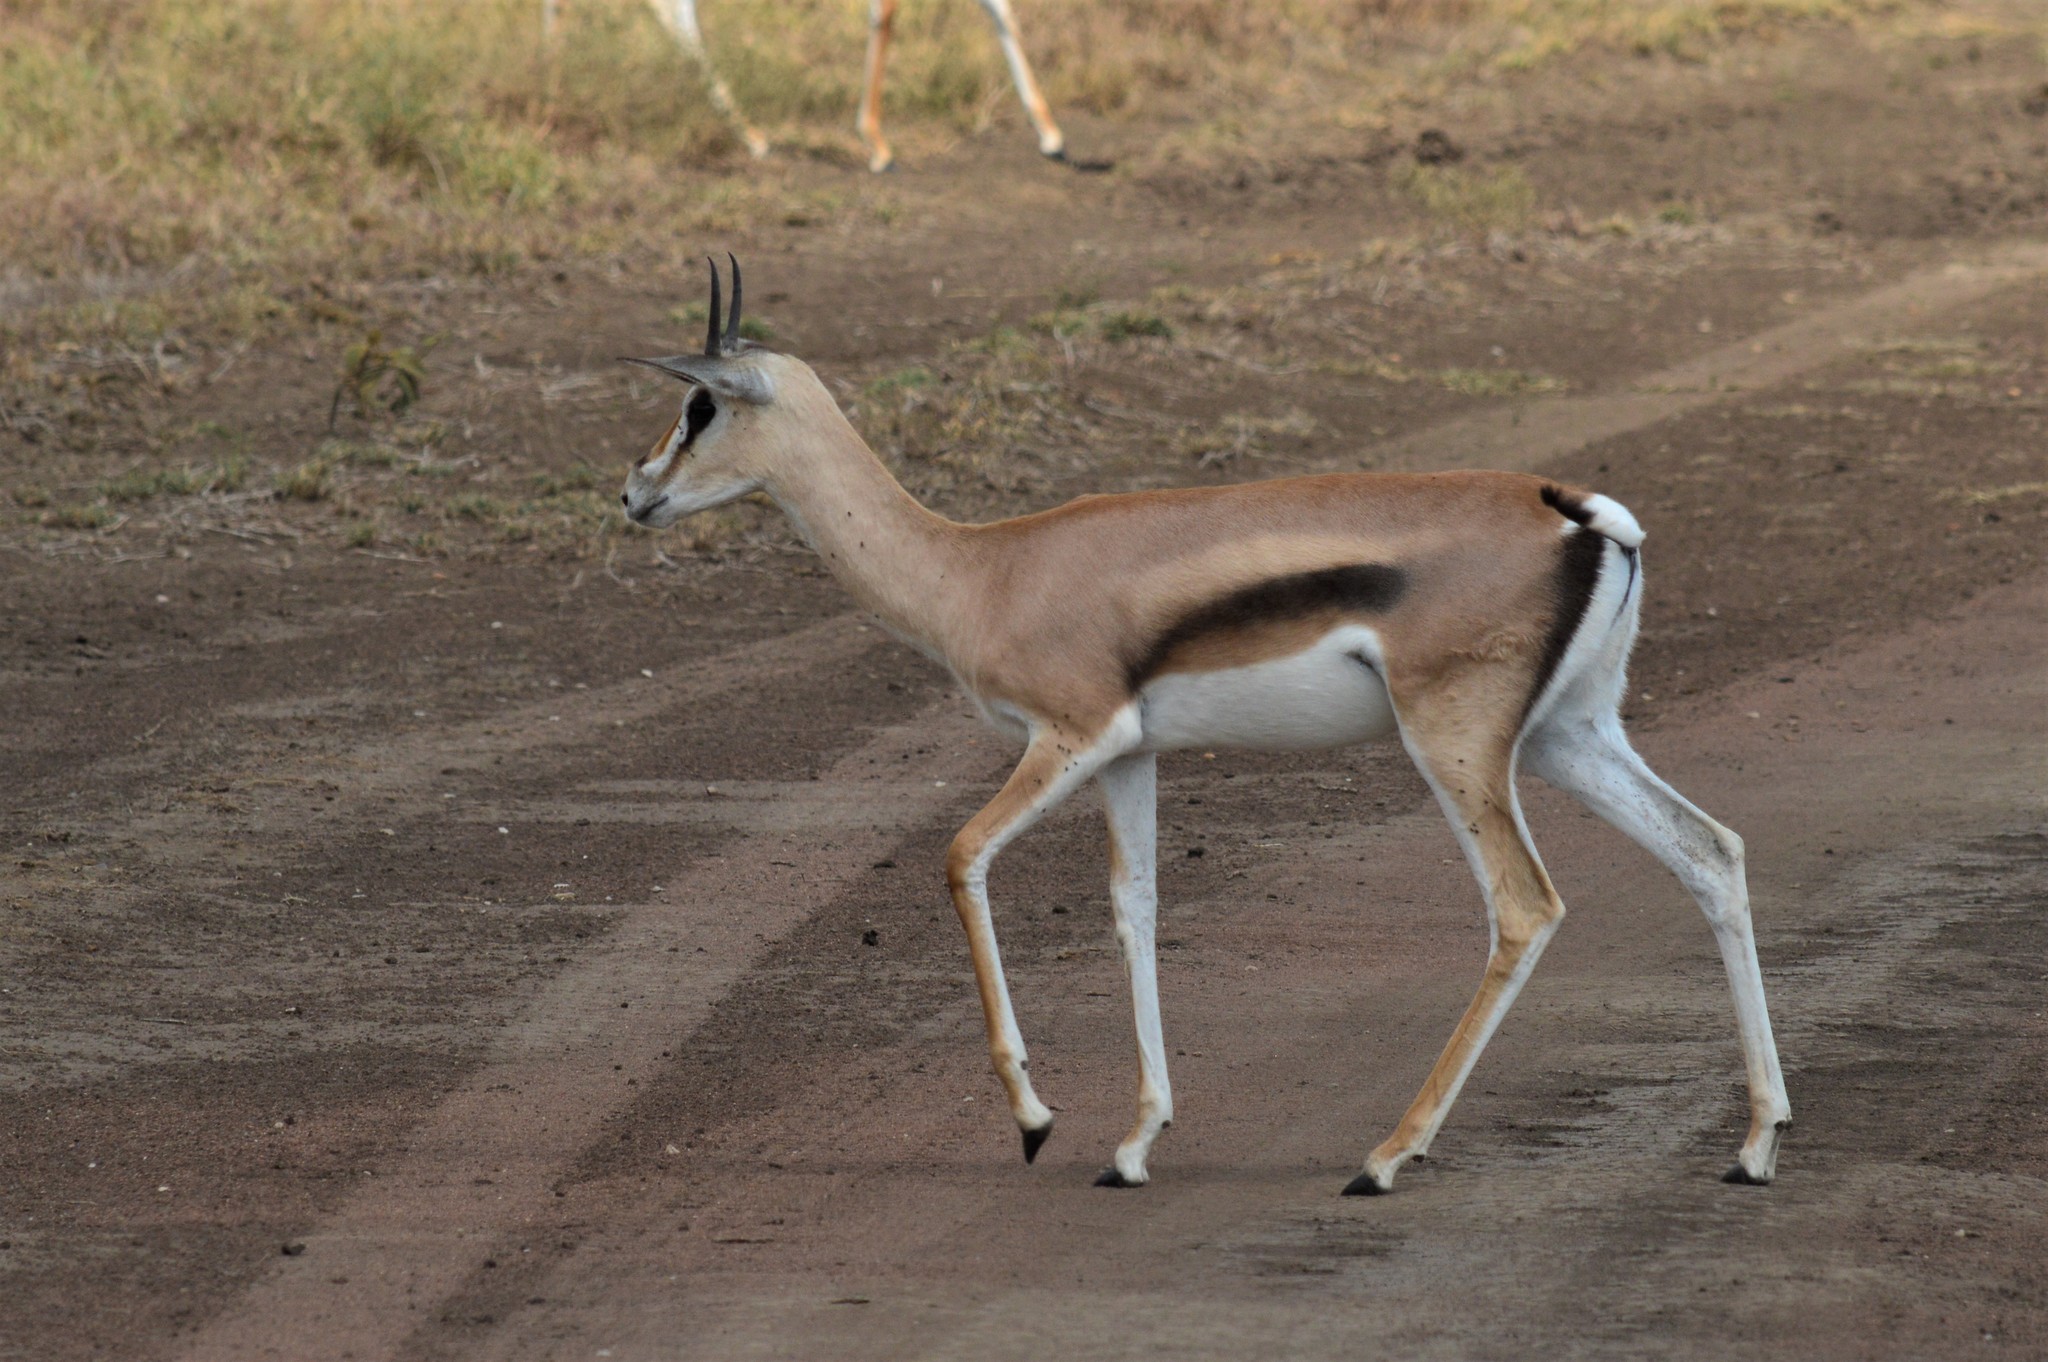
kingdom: Animalia
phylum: Chordata
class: Mammalia
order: Artiodactyla
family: Bovidae
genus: Nanger
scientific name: Nanger granti
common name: Grant's gazelle
